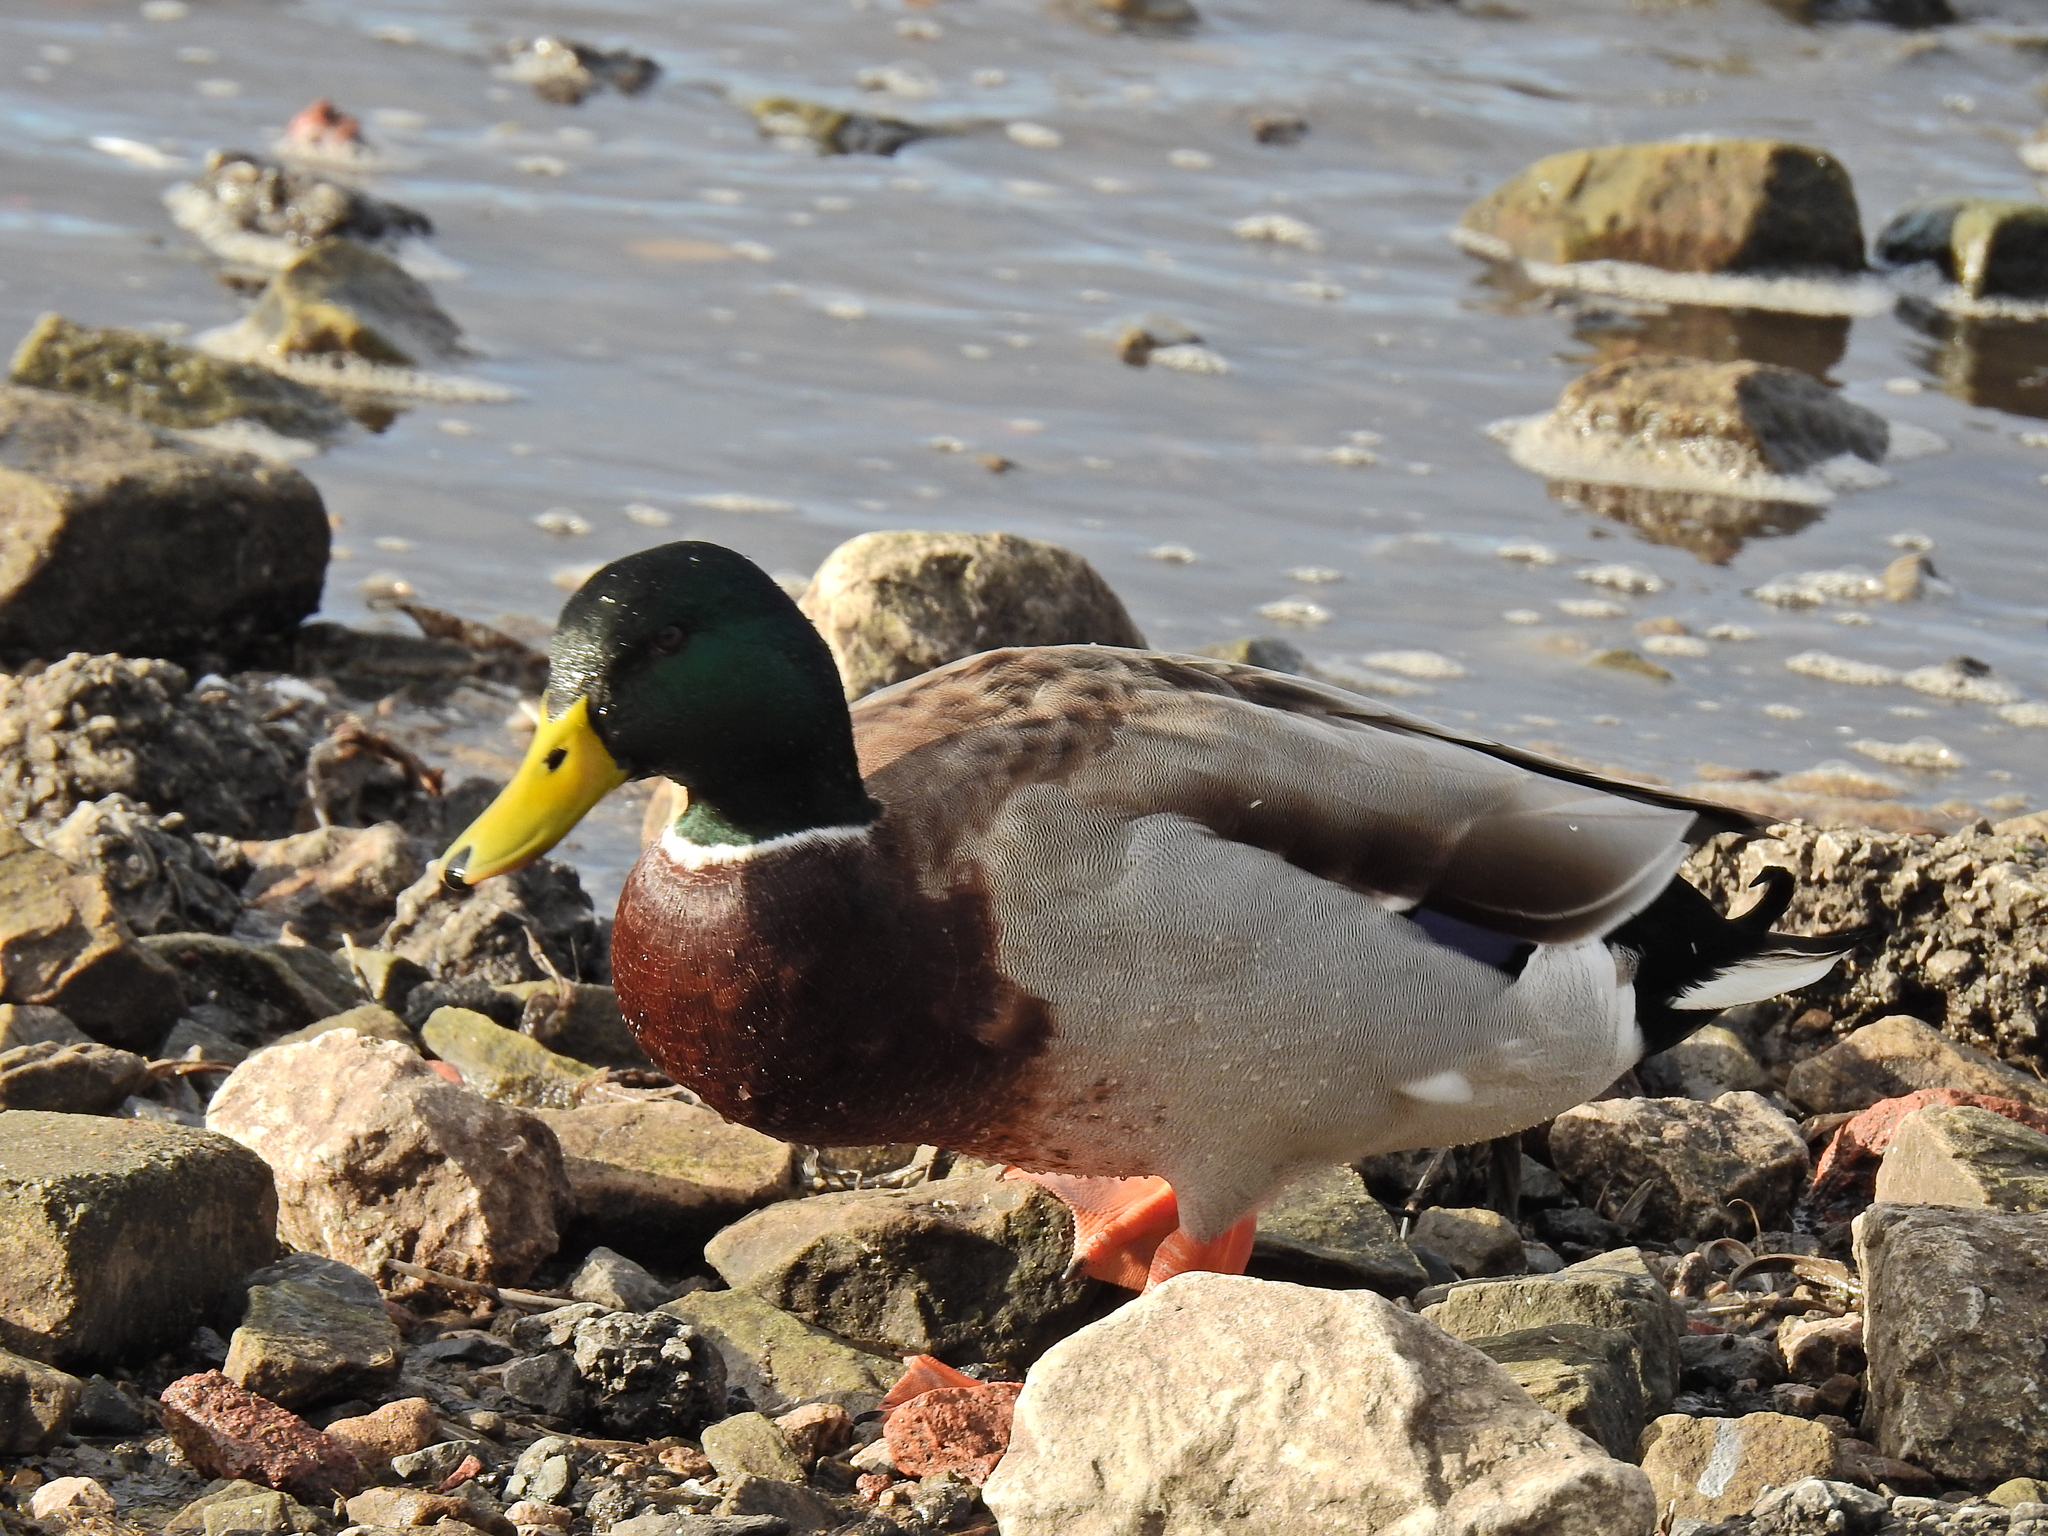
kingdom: Animalia
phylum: Chordata
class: Aves
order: Anseriformes
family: Anatidae
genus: Anas
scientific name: Anas platyrhynchos
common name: Mallard
